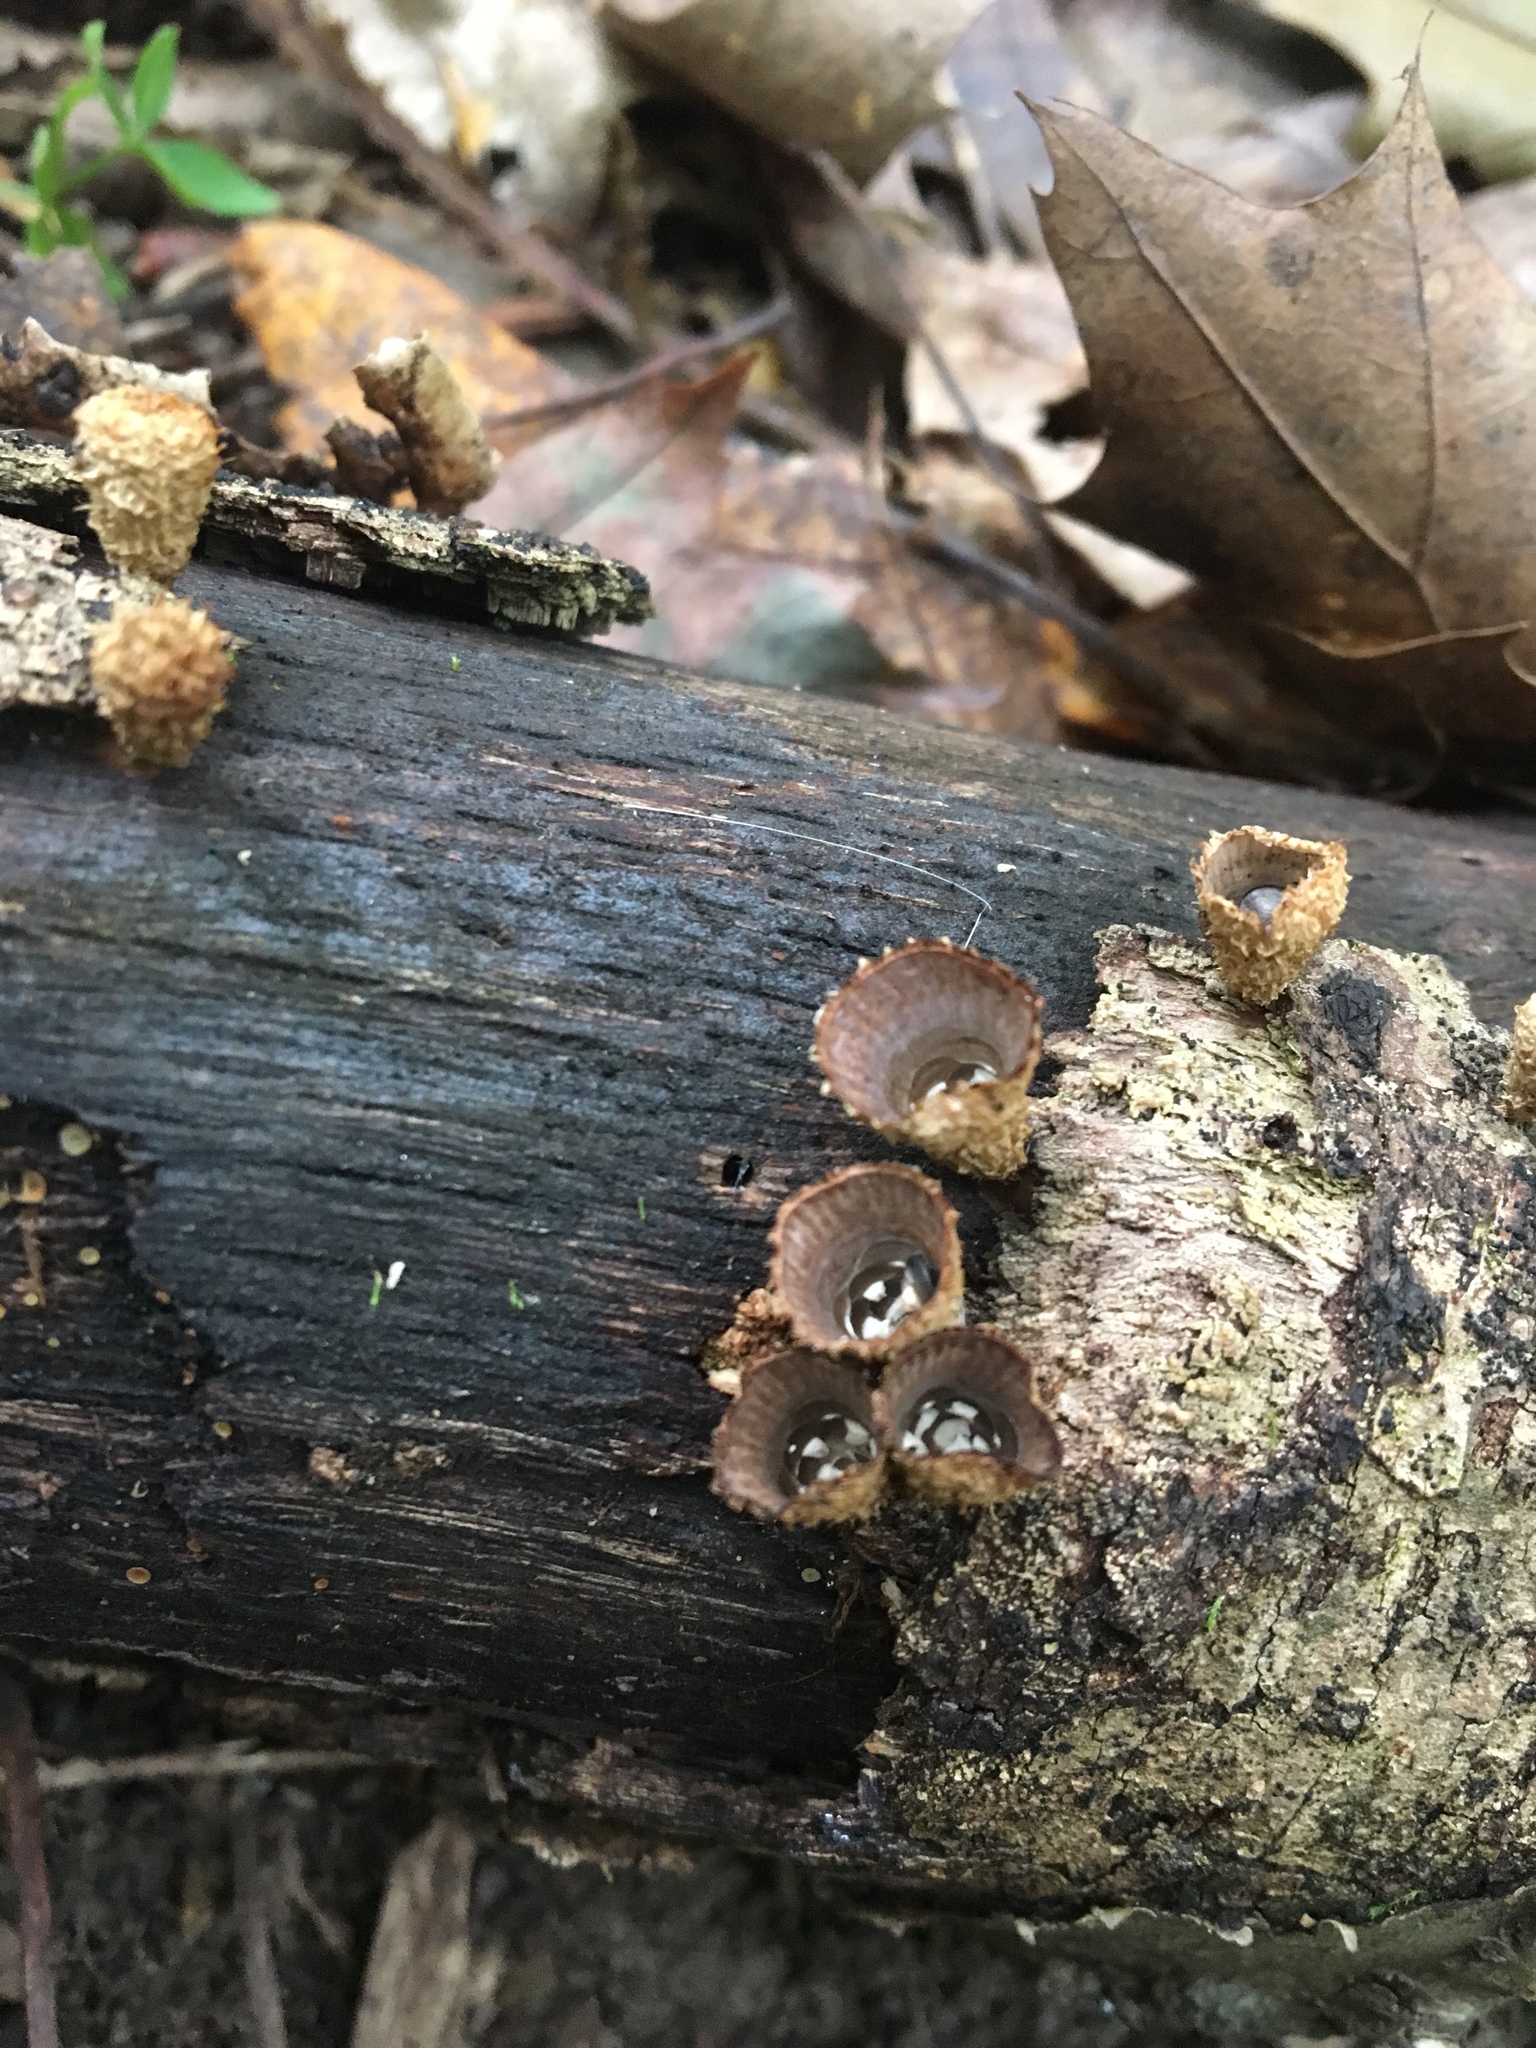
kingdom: Fungi
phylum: Basidiomycota
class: Agaricomycetes
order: Agaricales
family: Agaricaceae
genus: Cyathus
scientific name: Cyathus striatus
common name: Fluted bird's nest
